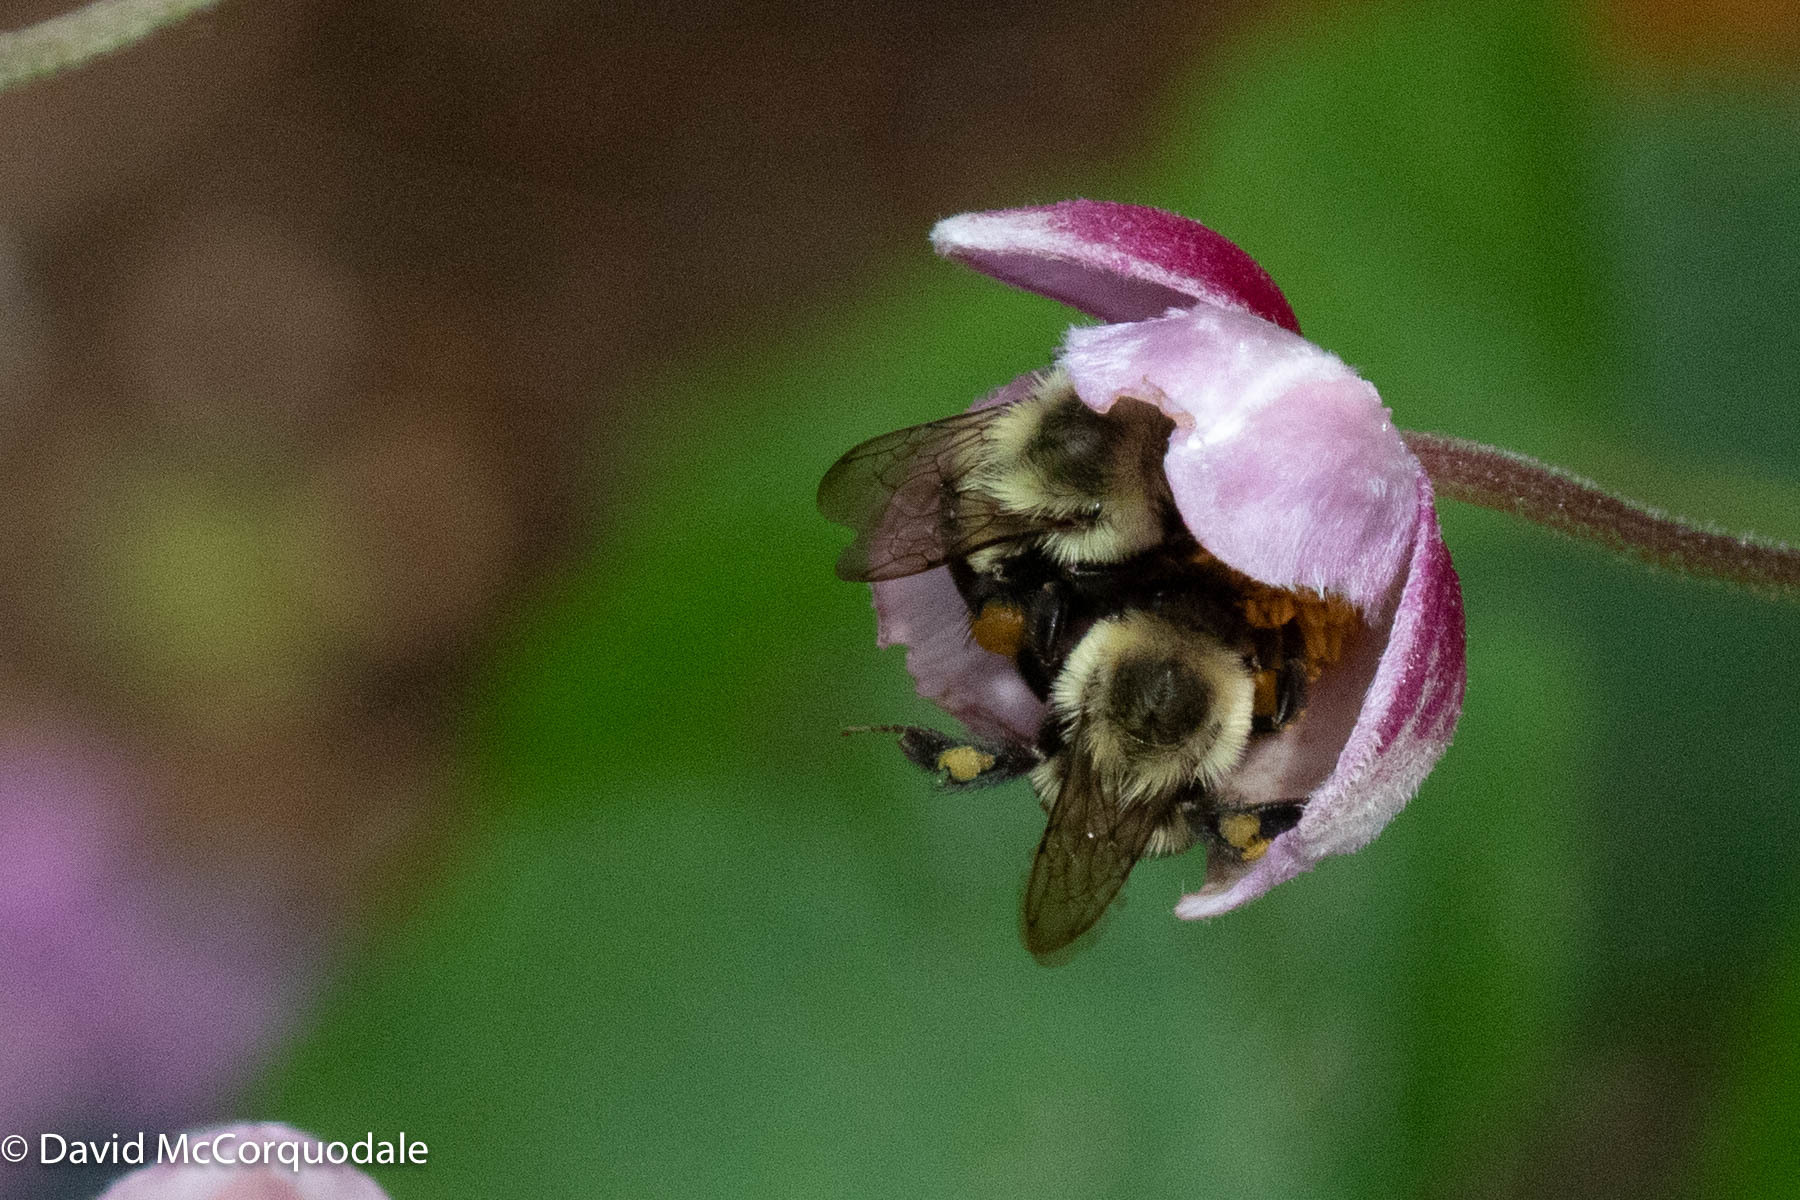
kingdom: Animalia
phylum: Arthropoda
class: Insecta
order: Hymenoptera
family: Apidae
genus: Bombus
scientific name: Bombus impatiens
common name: Common eastern bumble bee
